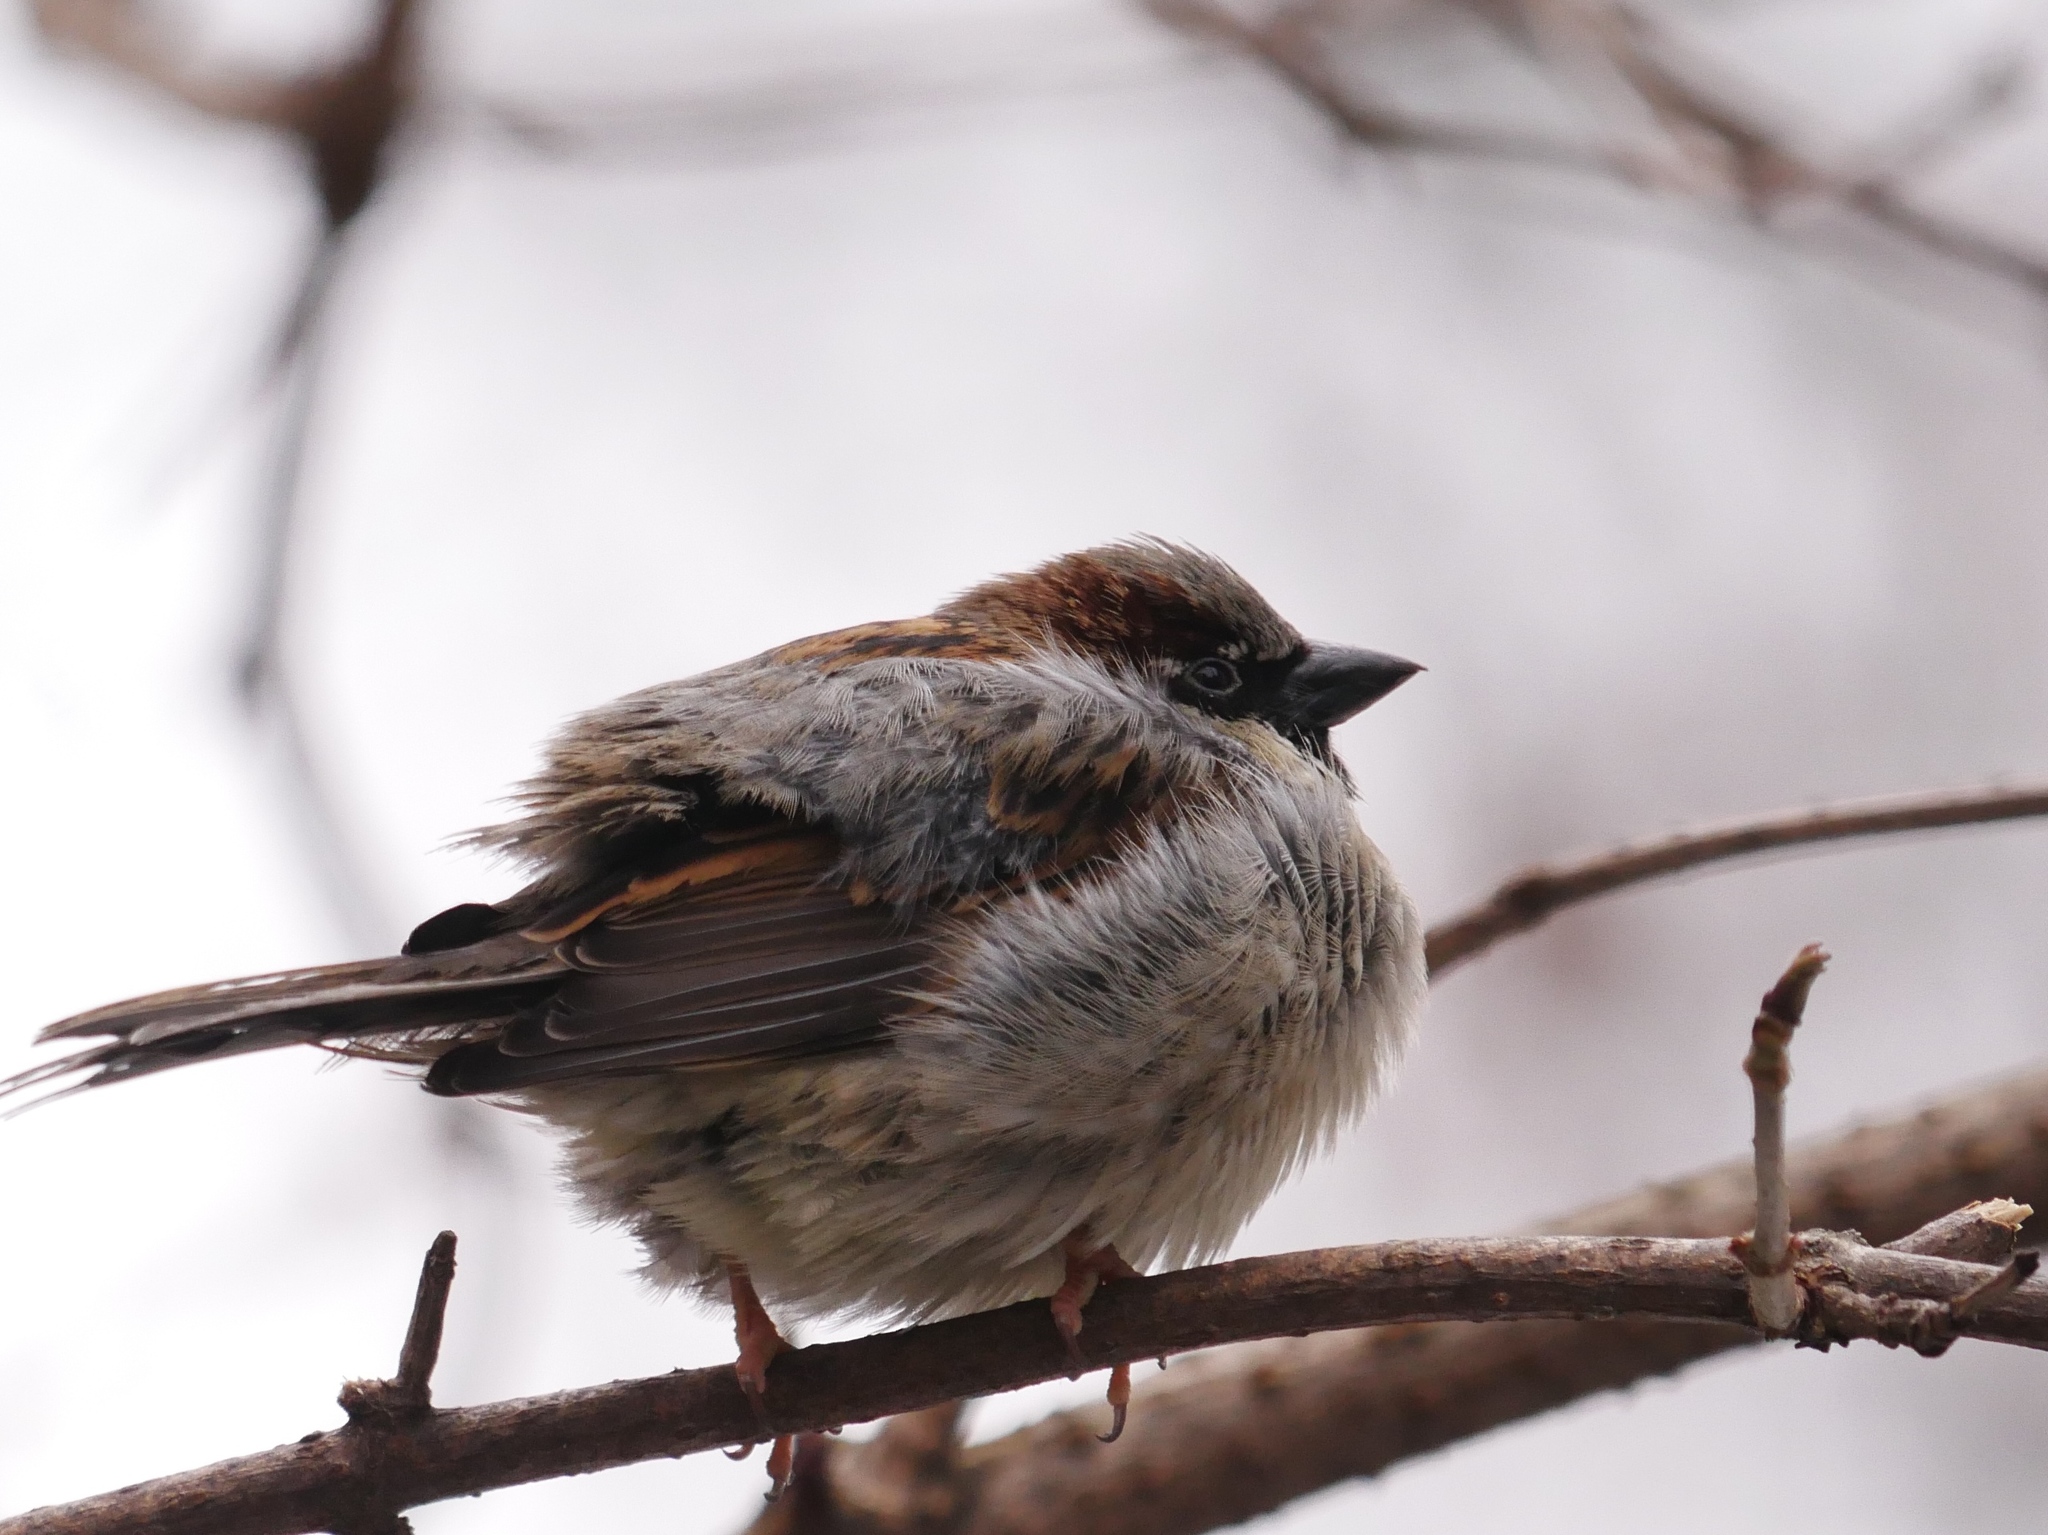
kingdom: Animalia
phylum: Chordata
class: Aves
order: Passeriformes
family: Passeridae
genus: Passer
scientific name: Passer domesticus
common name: House sparrow
